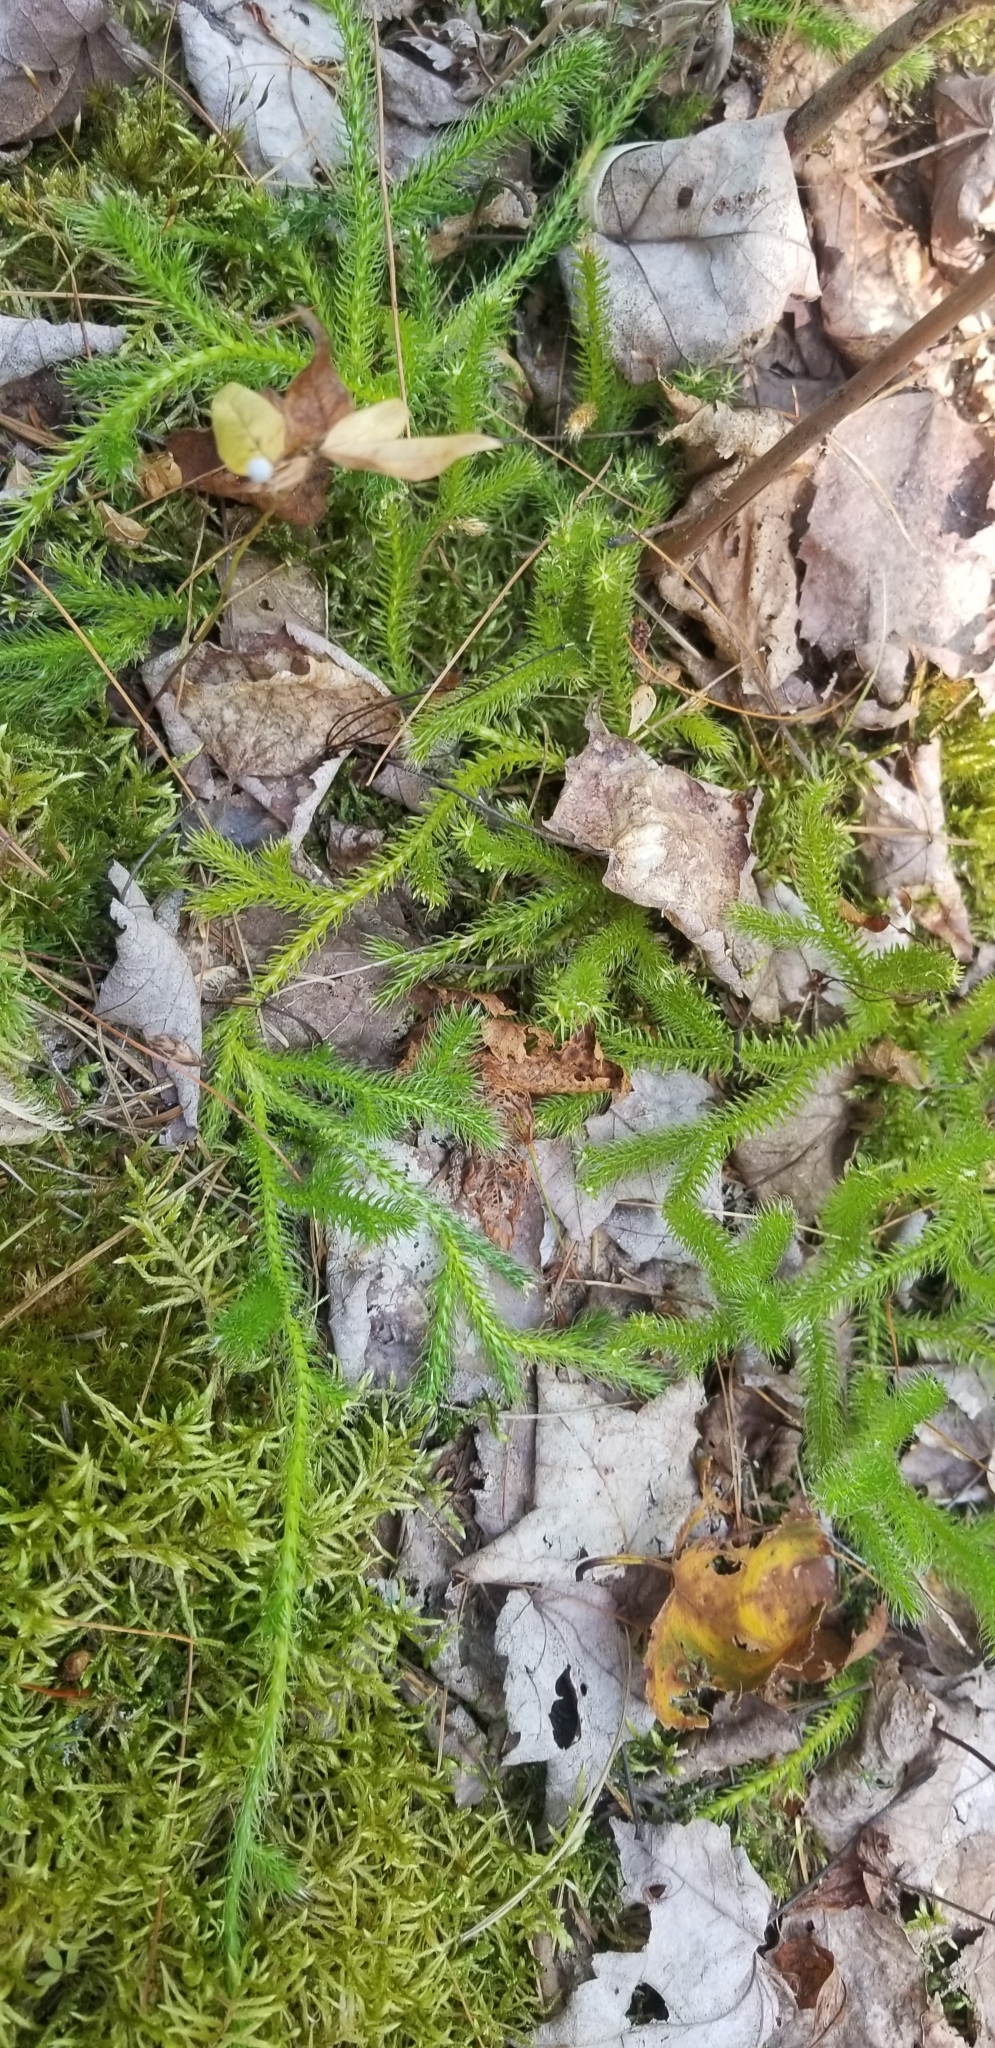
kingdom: Plantae
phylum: Tracheophyta
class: Lycopodiopsida
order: Lycopodiales
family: Lycopodiaceae
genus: Lycopodium
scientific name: Lycopodium clavatum
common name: Stag's-horn clubmoss
